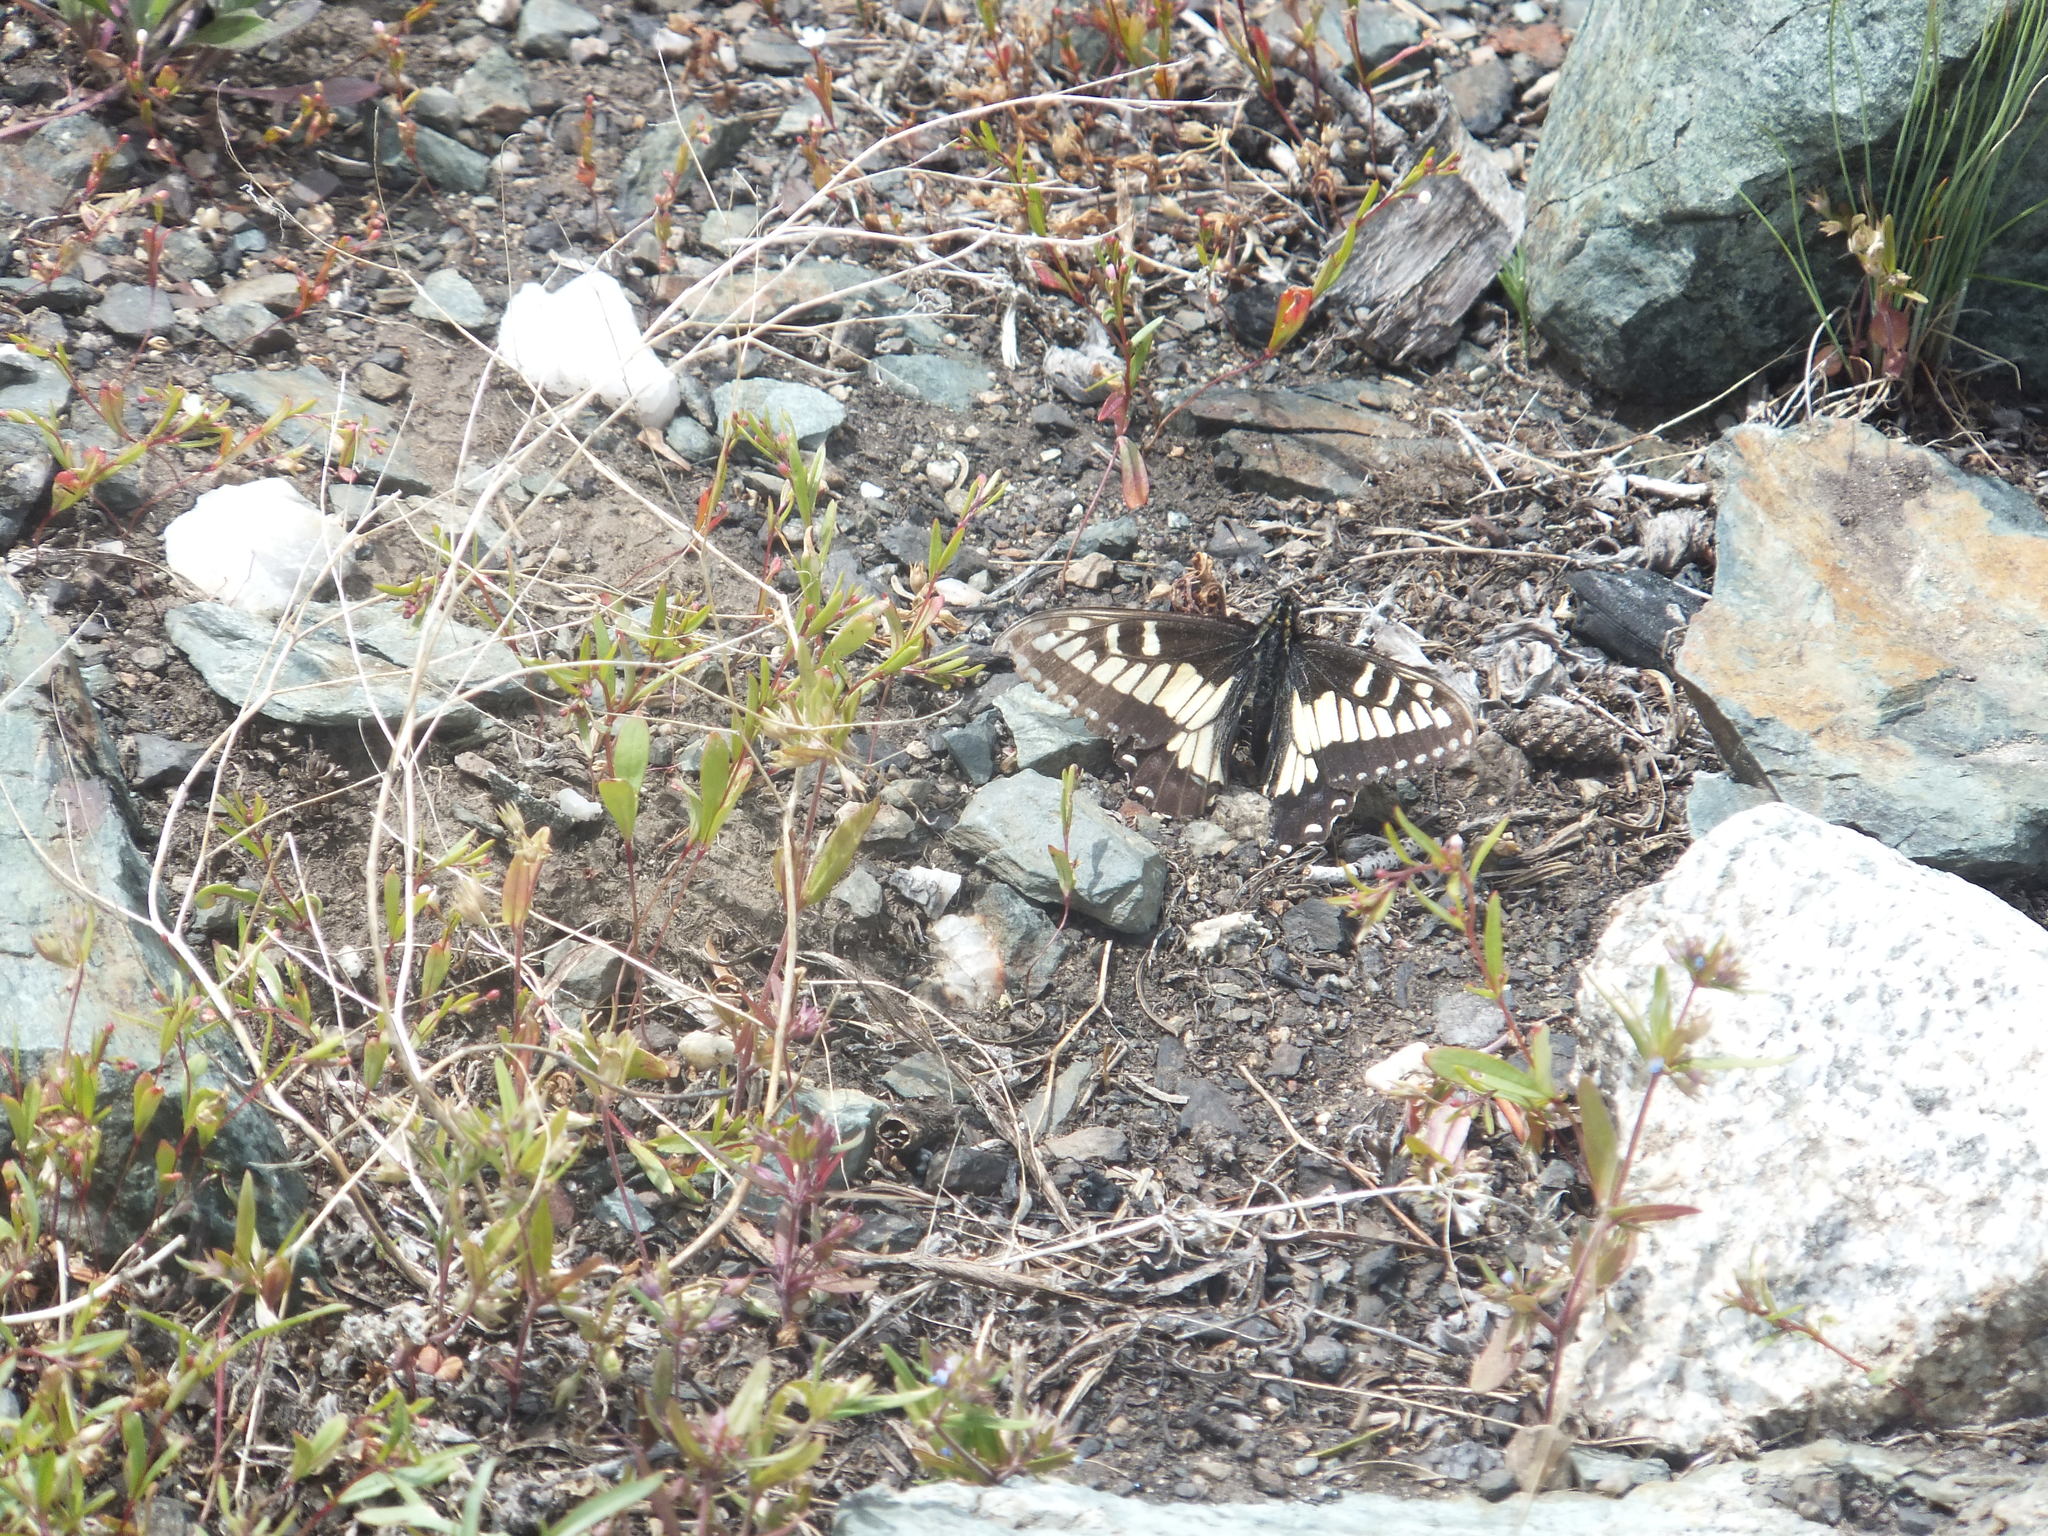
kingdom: Animalia
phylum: Arthropoda
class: Insecta
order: Lepidoptera
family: Papilionidae
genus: Papilio
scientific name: Papilio zelicaon
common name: Anise swallowtail
